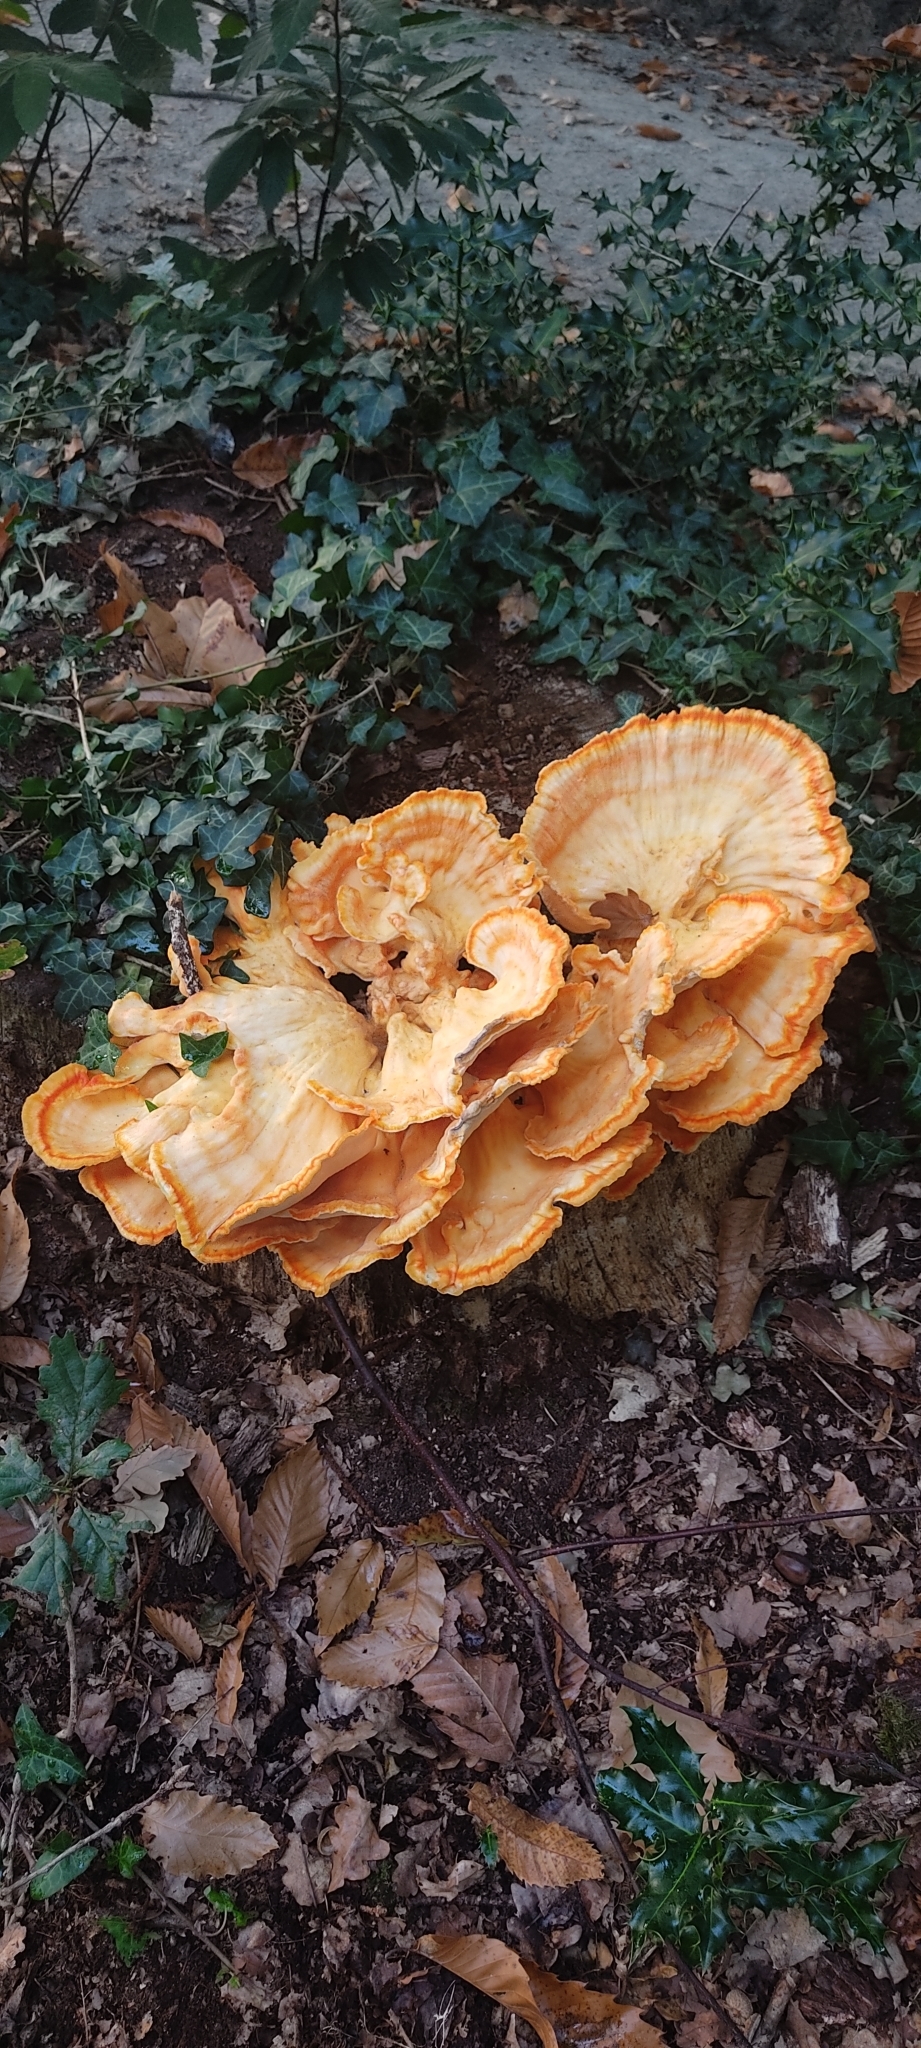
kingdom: Fungi
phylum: Basidiomycota
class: Agaricomycetes
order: Polyporales
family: Laetiporaceae
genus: Laetiporus
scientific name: Laetiporus sulphureus
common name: Chicken of the woods
